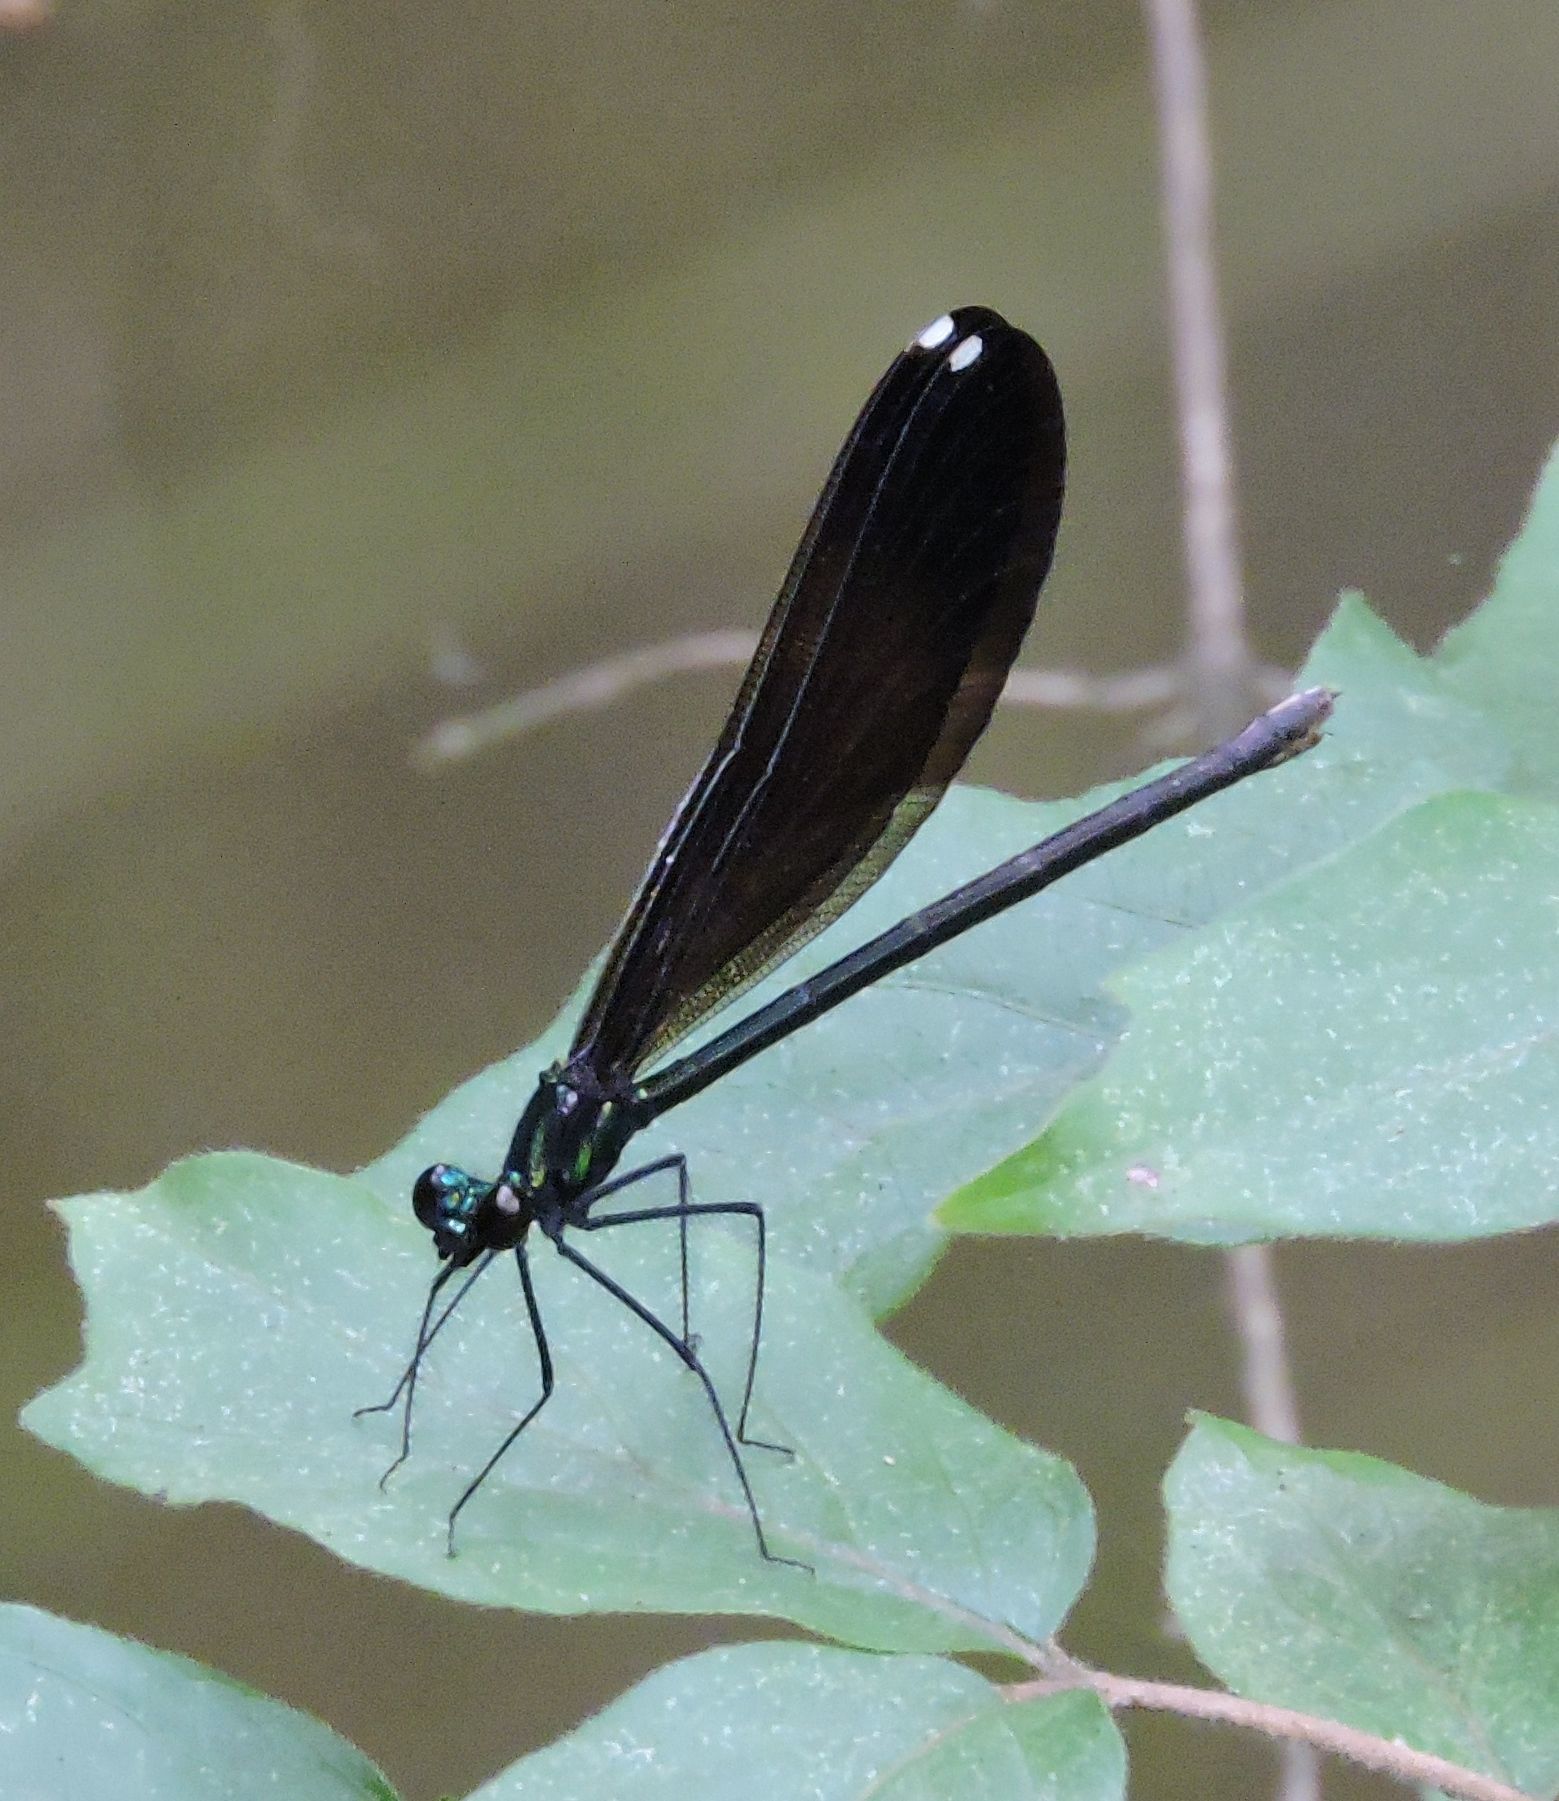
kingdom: Animalia
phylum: Arthropoda
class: Insecta
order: Odonata
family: Calopterygidae
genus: Calopteryx
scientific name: Calopteryx maculata
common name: Ebony jewelwing
